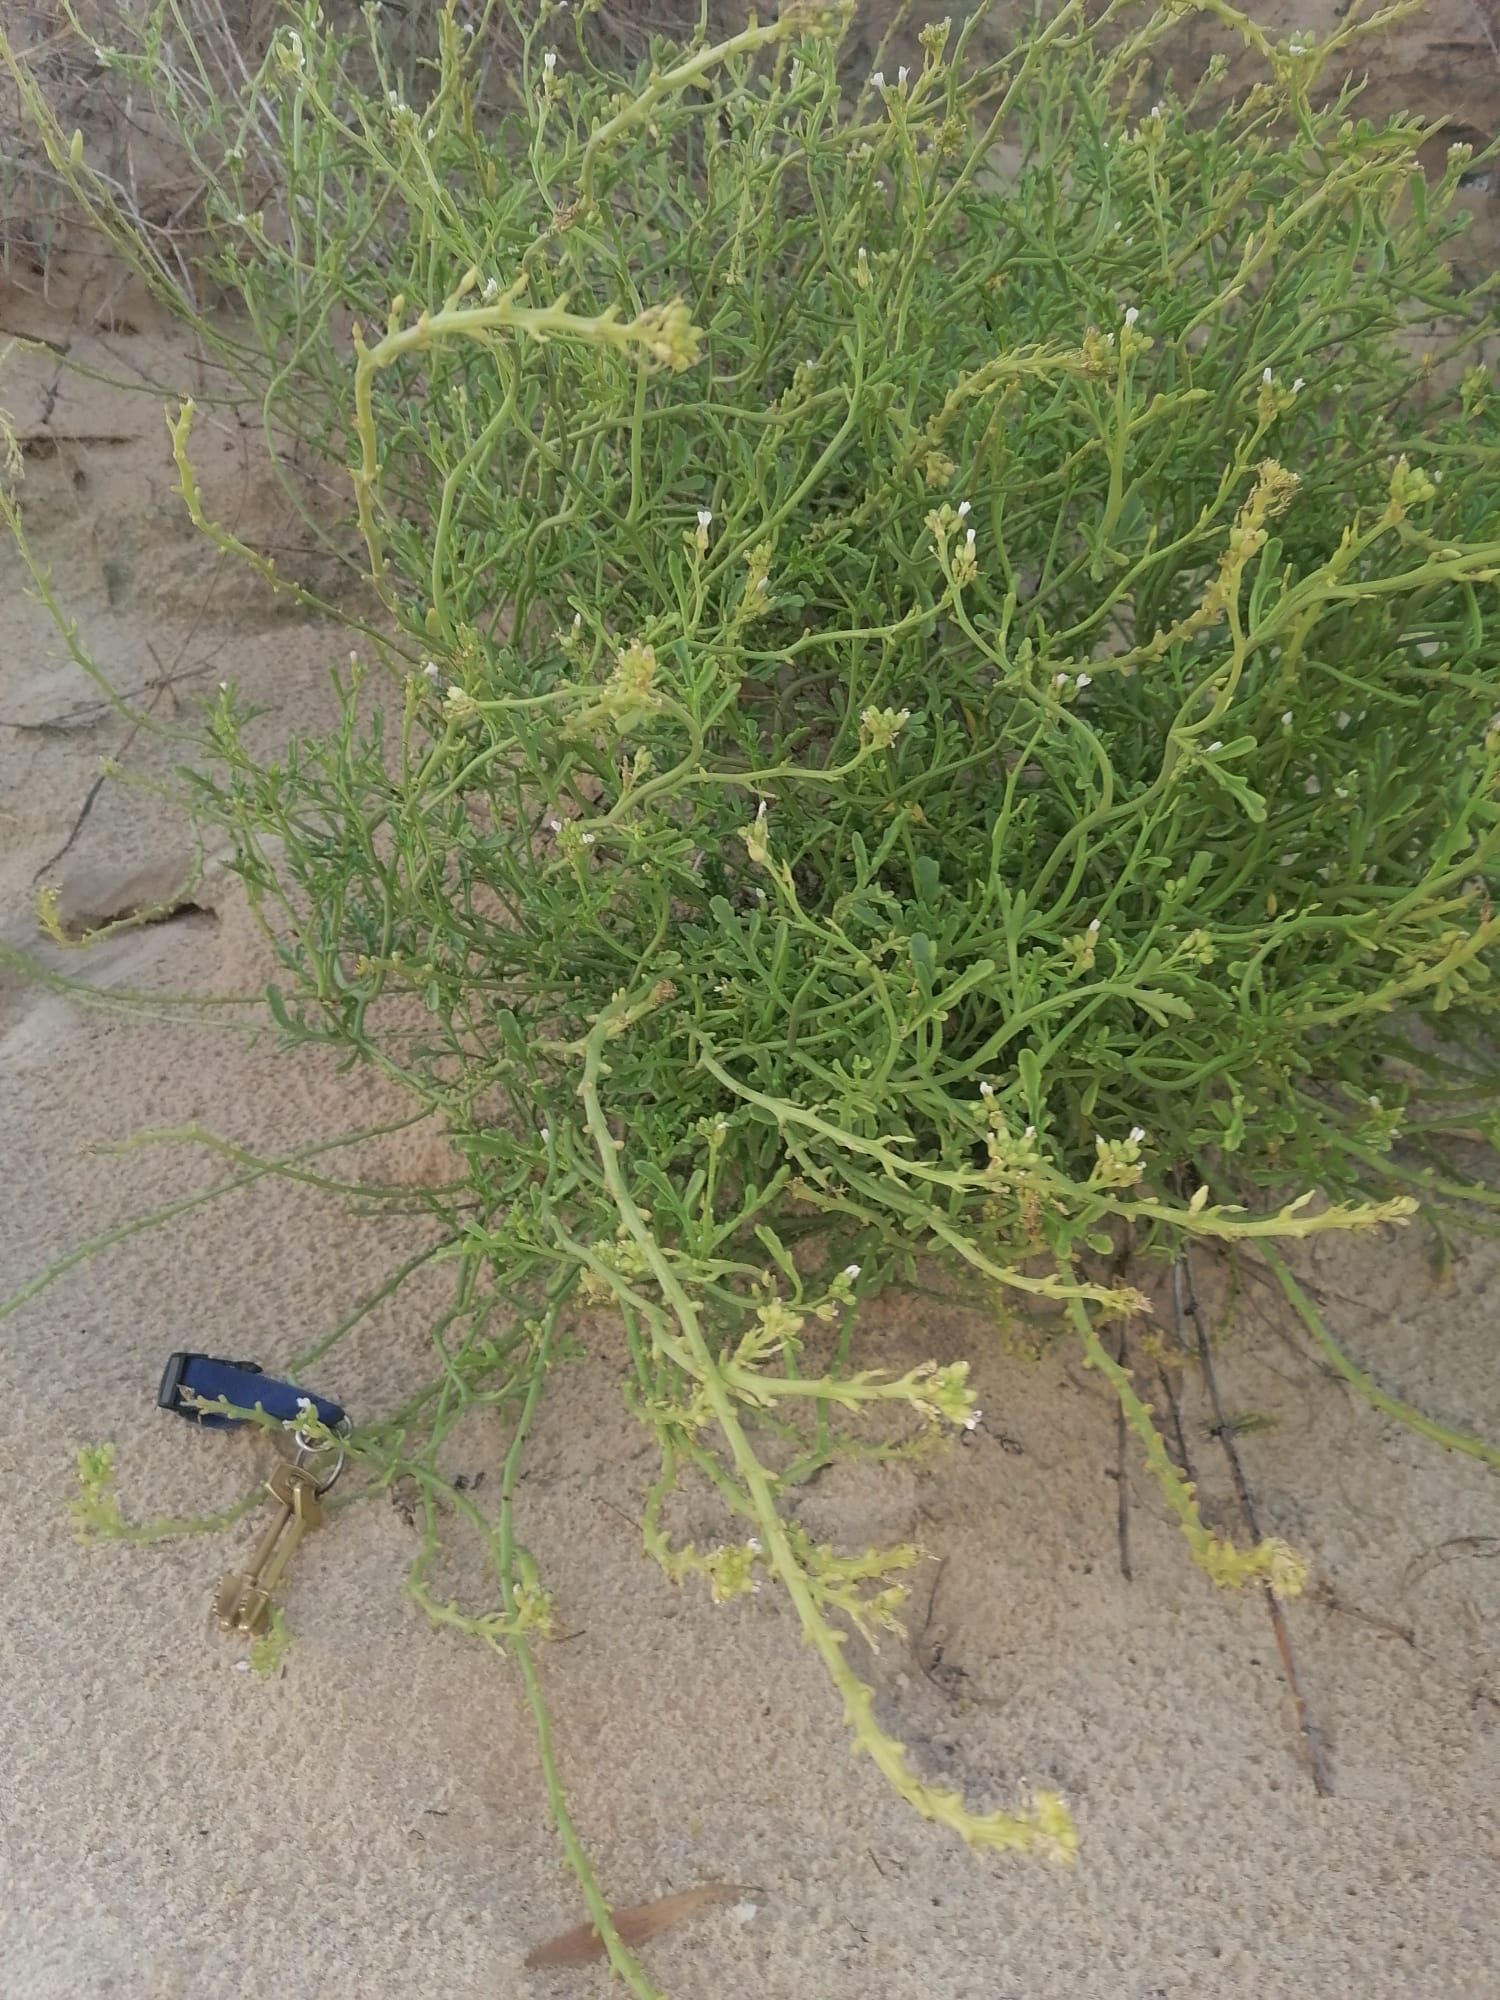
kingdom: Plantae
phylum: Tracheophyta
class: Magnoliopsida
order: Brassicales
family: Brassicaceae
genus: Cakile
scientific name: Cakile maritima
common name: Sea rocket
